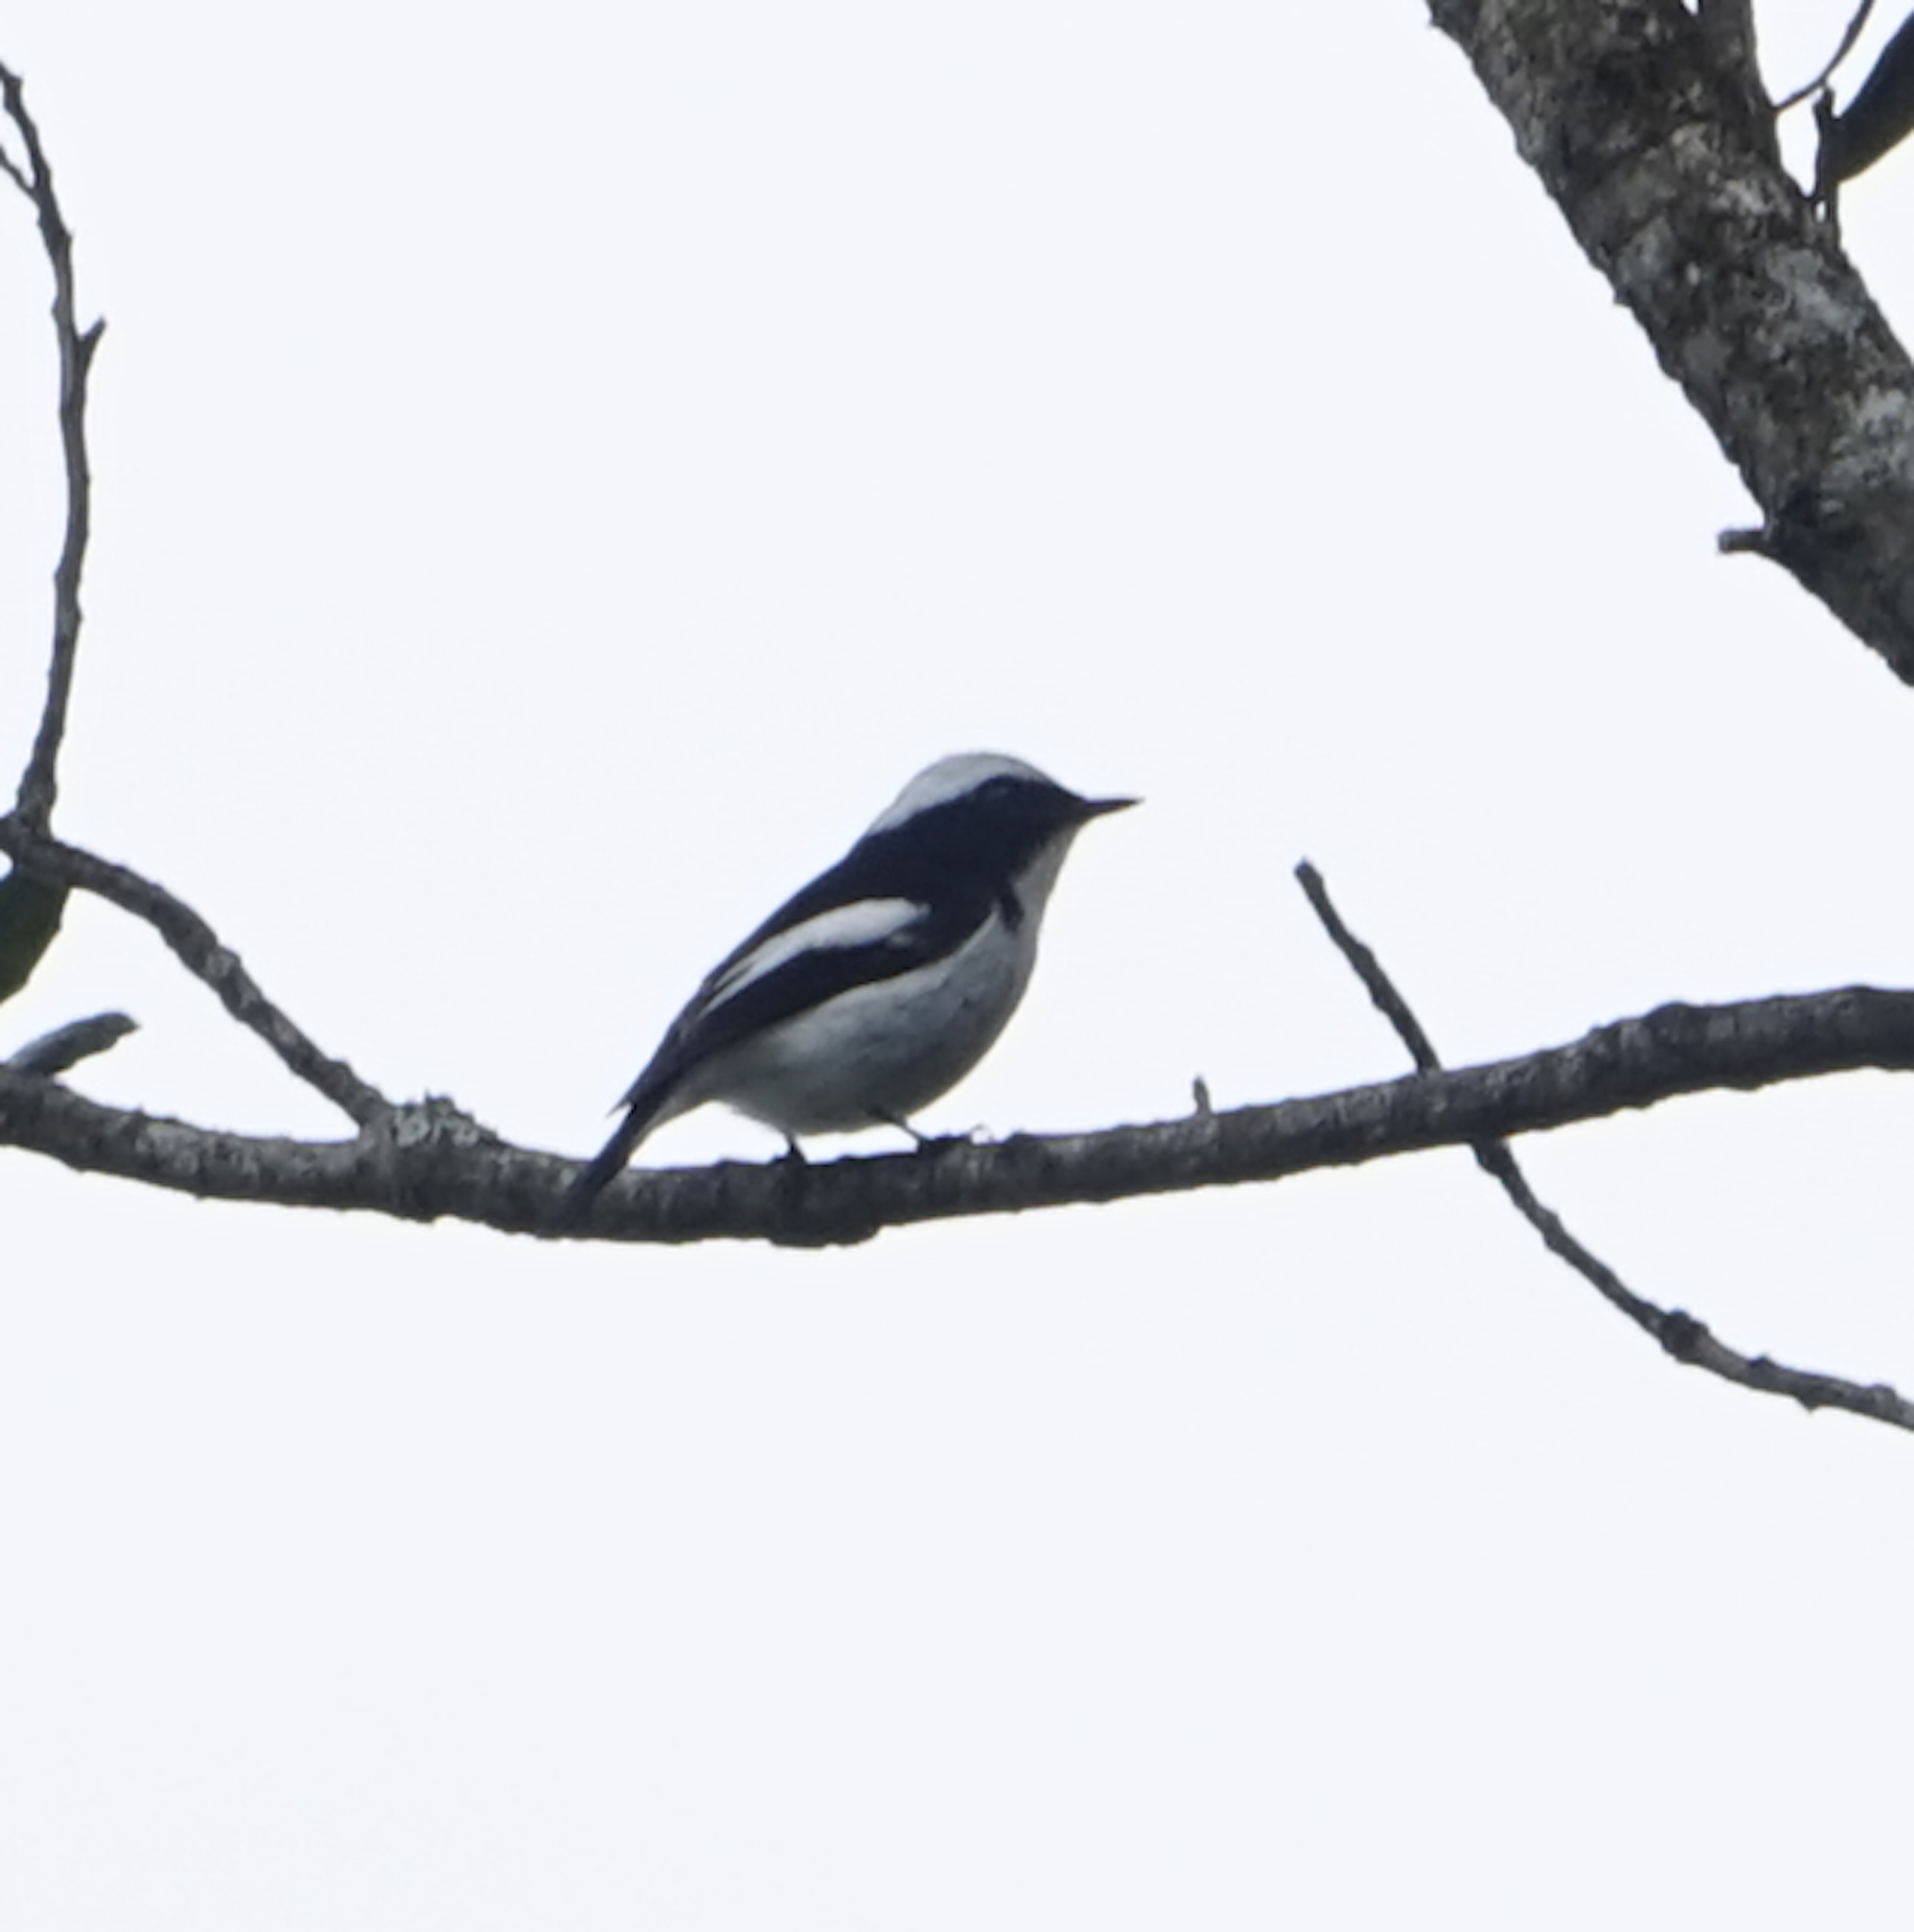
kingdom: Animalia
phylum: Chordata
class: Aves
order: Passeriformes
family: Muscicapidae
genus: Ficedula
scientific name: Ficedula westermanni
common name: Little pied flycatcher
